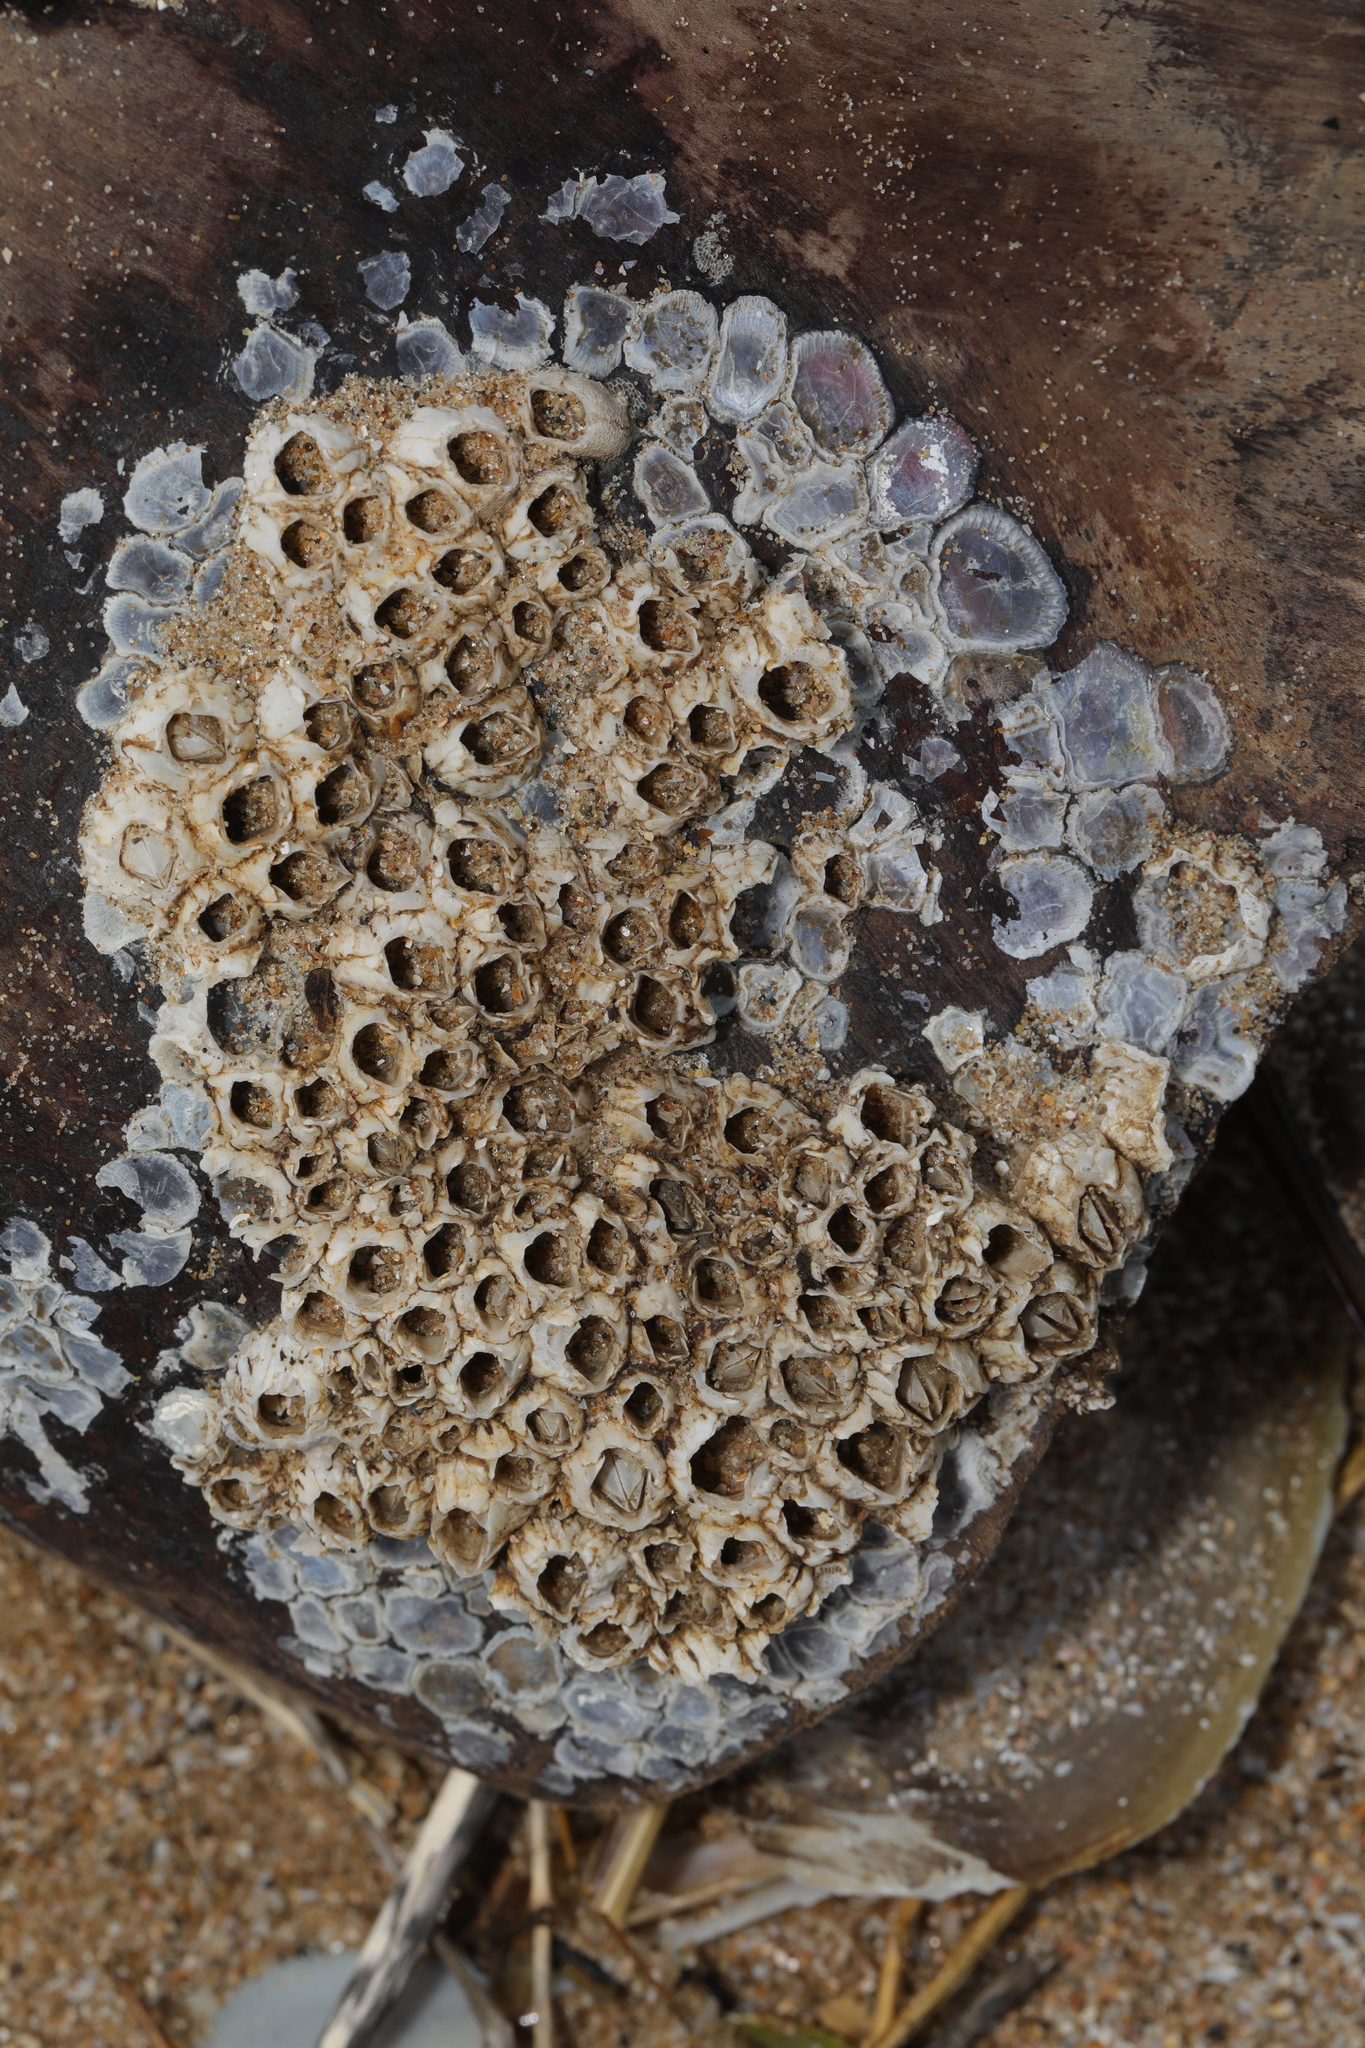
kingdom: Animalia
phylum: Arthropoda
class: Maxillopoda
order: Sessilia
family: Balanidae
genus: Balanus
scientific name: Balanus crenatus
